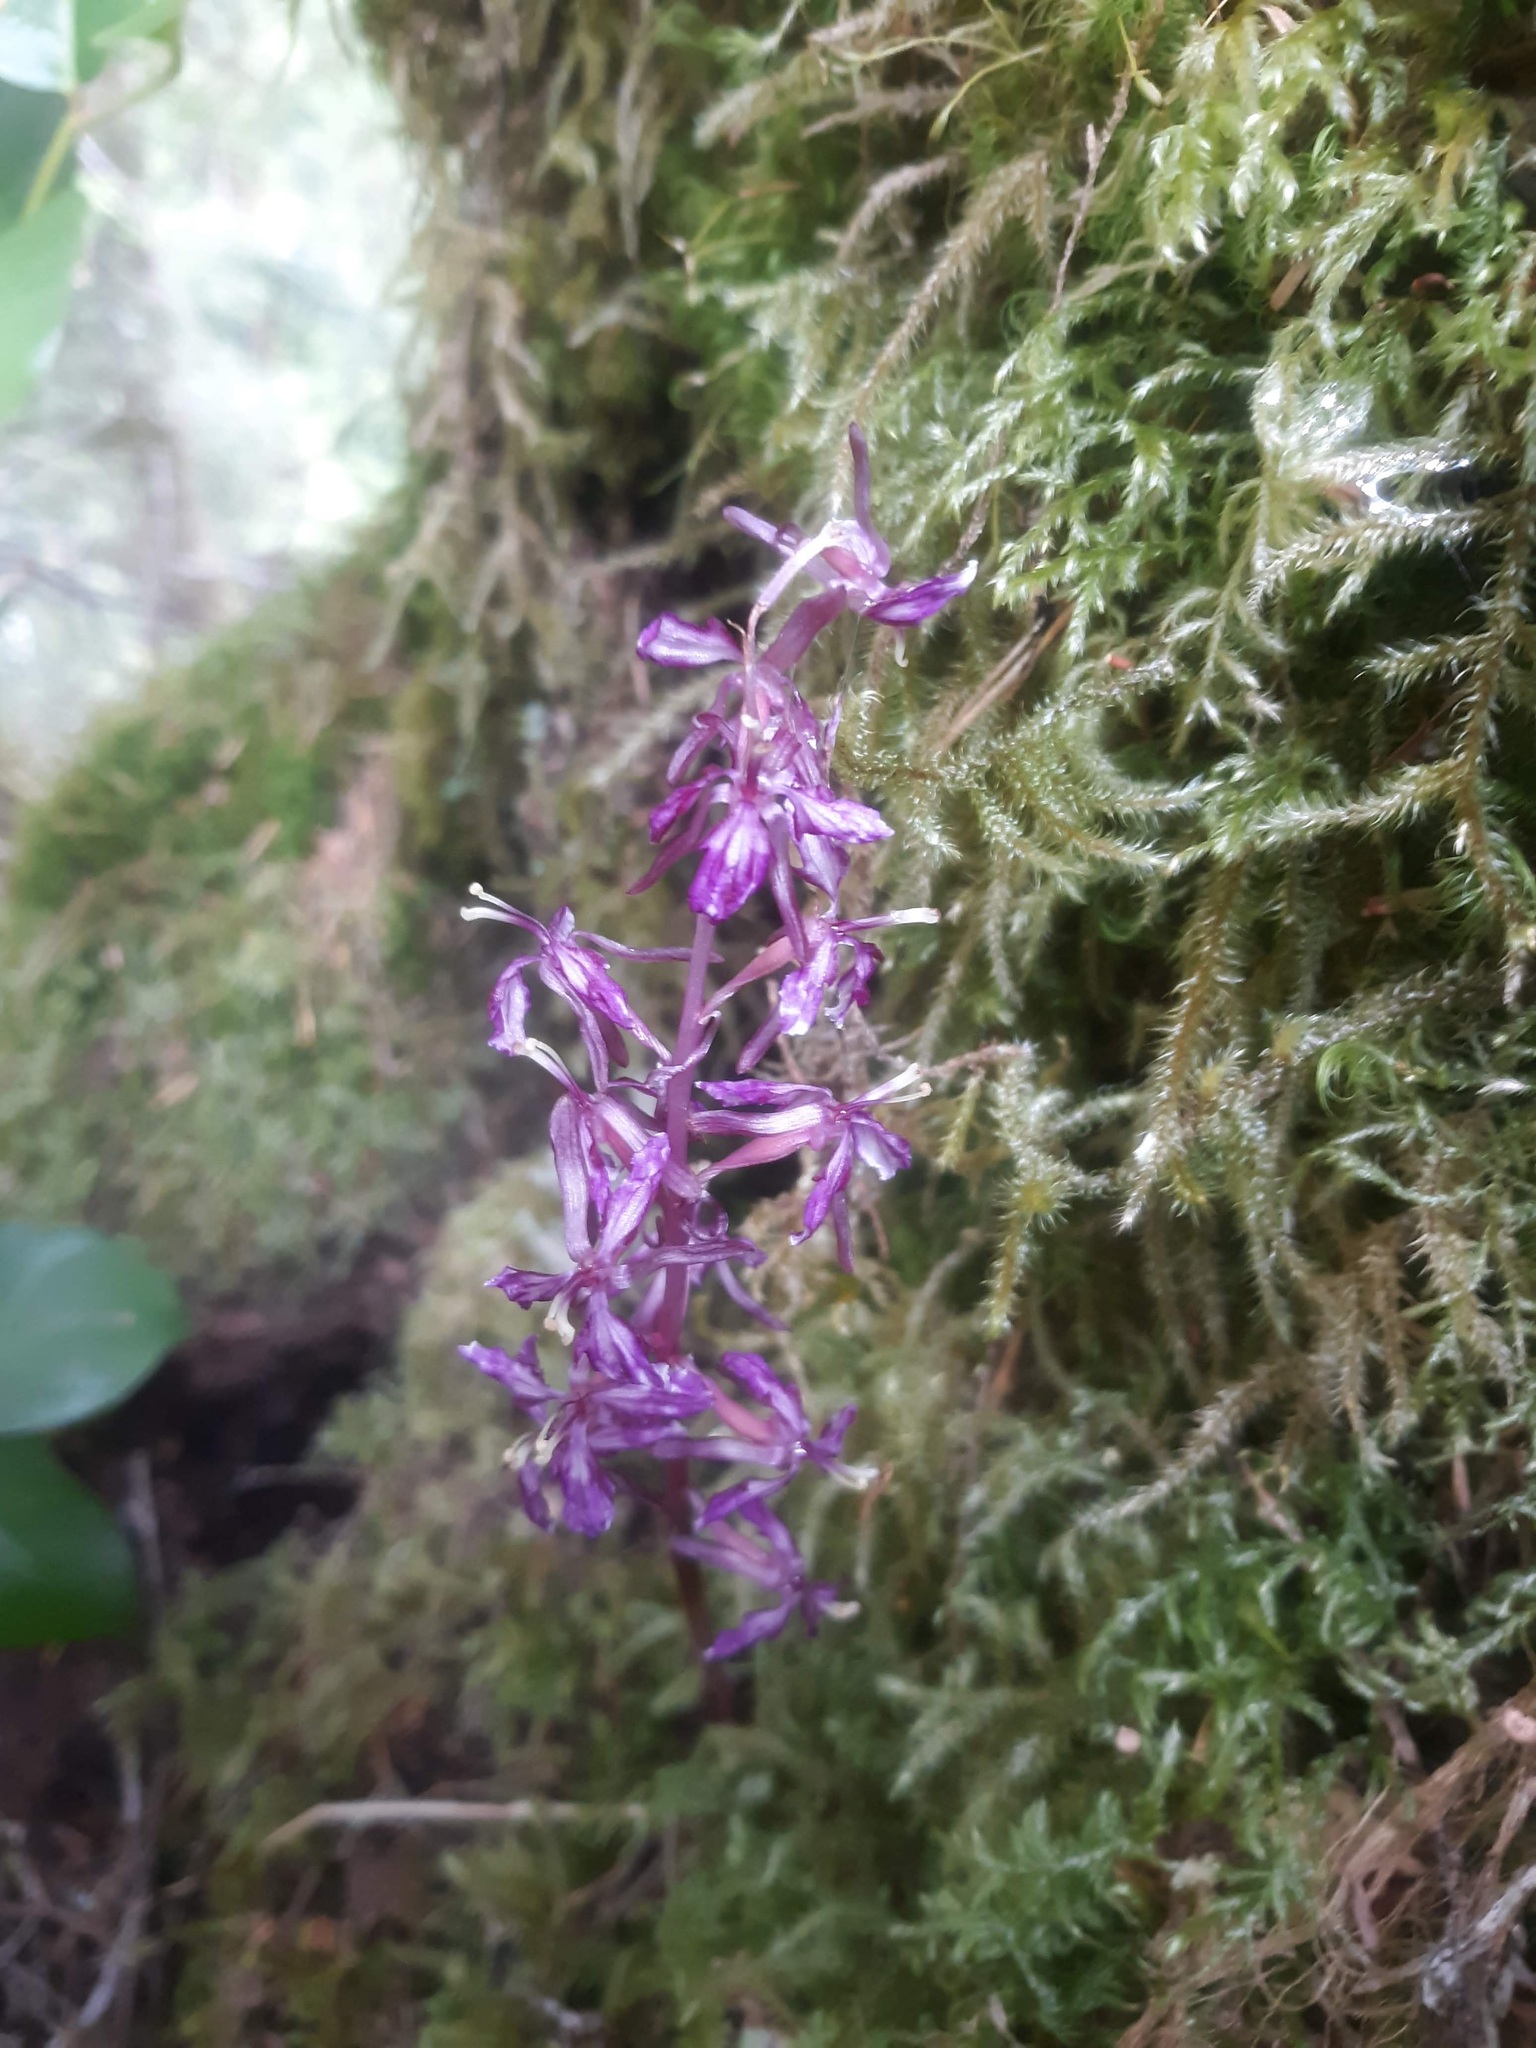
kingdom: Plantae
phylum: Tracheophyta
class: Liliopsida
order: Asparagales
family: Orchidaceae
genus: Corallorhiza
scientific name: Corallorhiza mertensiana
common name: Pacific coralroot
